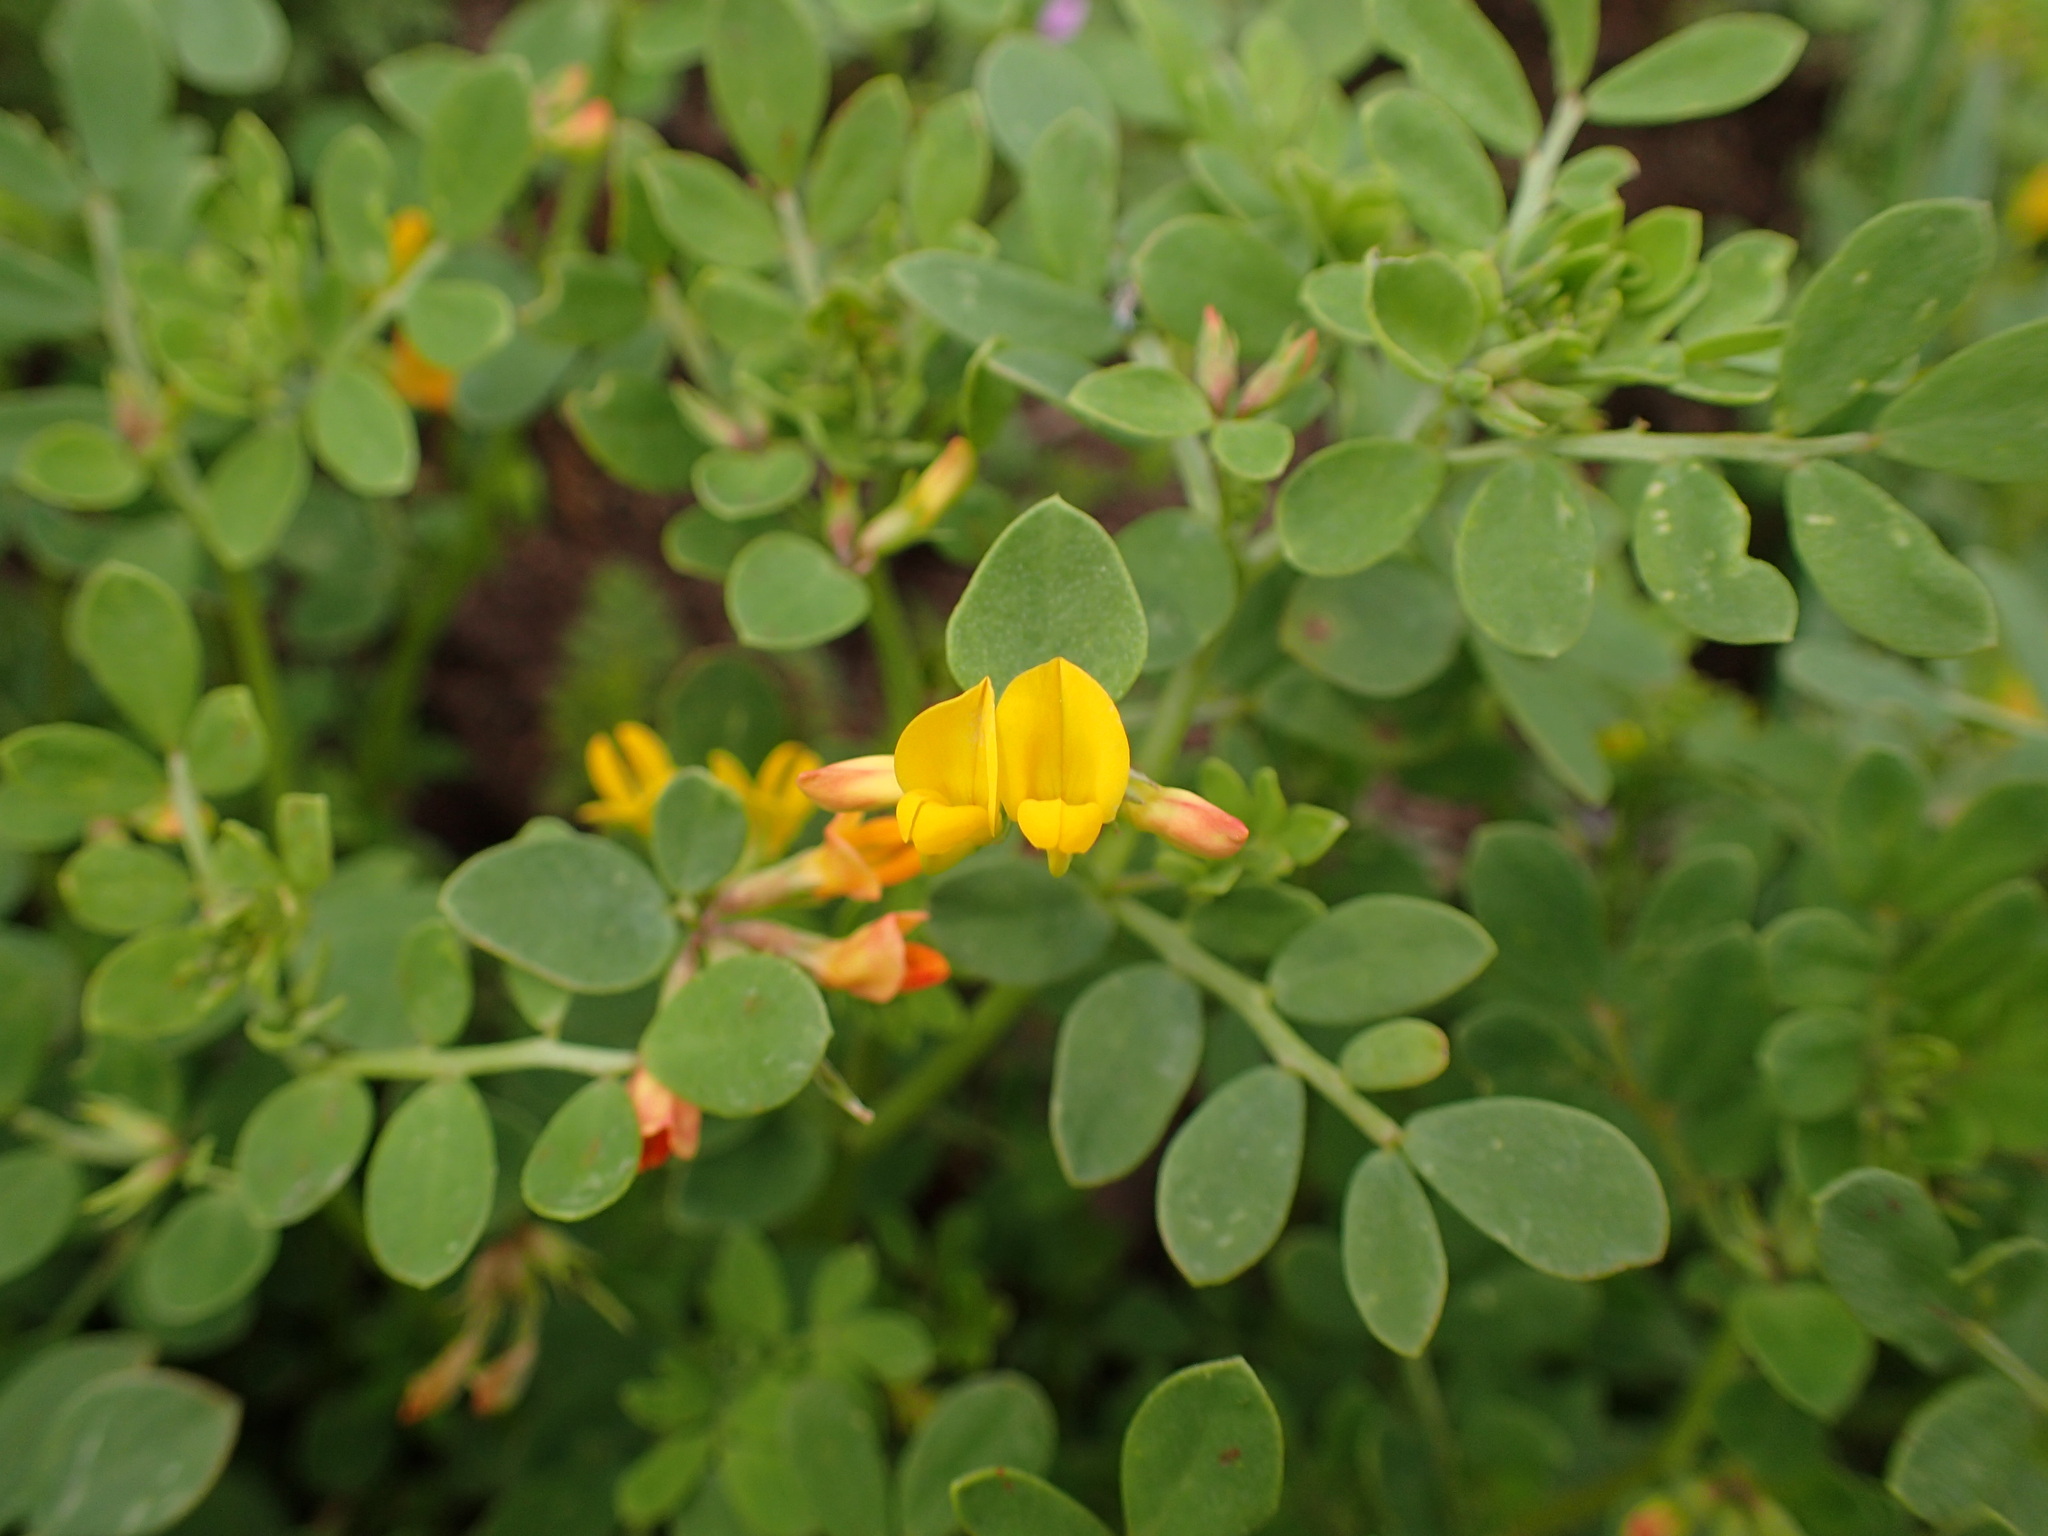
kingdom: Plantae
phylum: Tracheophyta
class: Magnoliopsida
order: Fabales
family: Fabaceae
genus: Acmispon
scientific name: Acmispon maritimus
